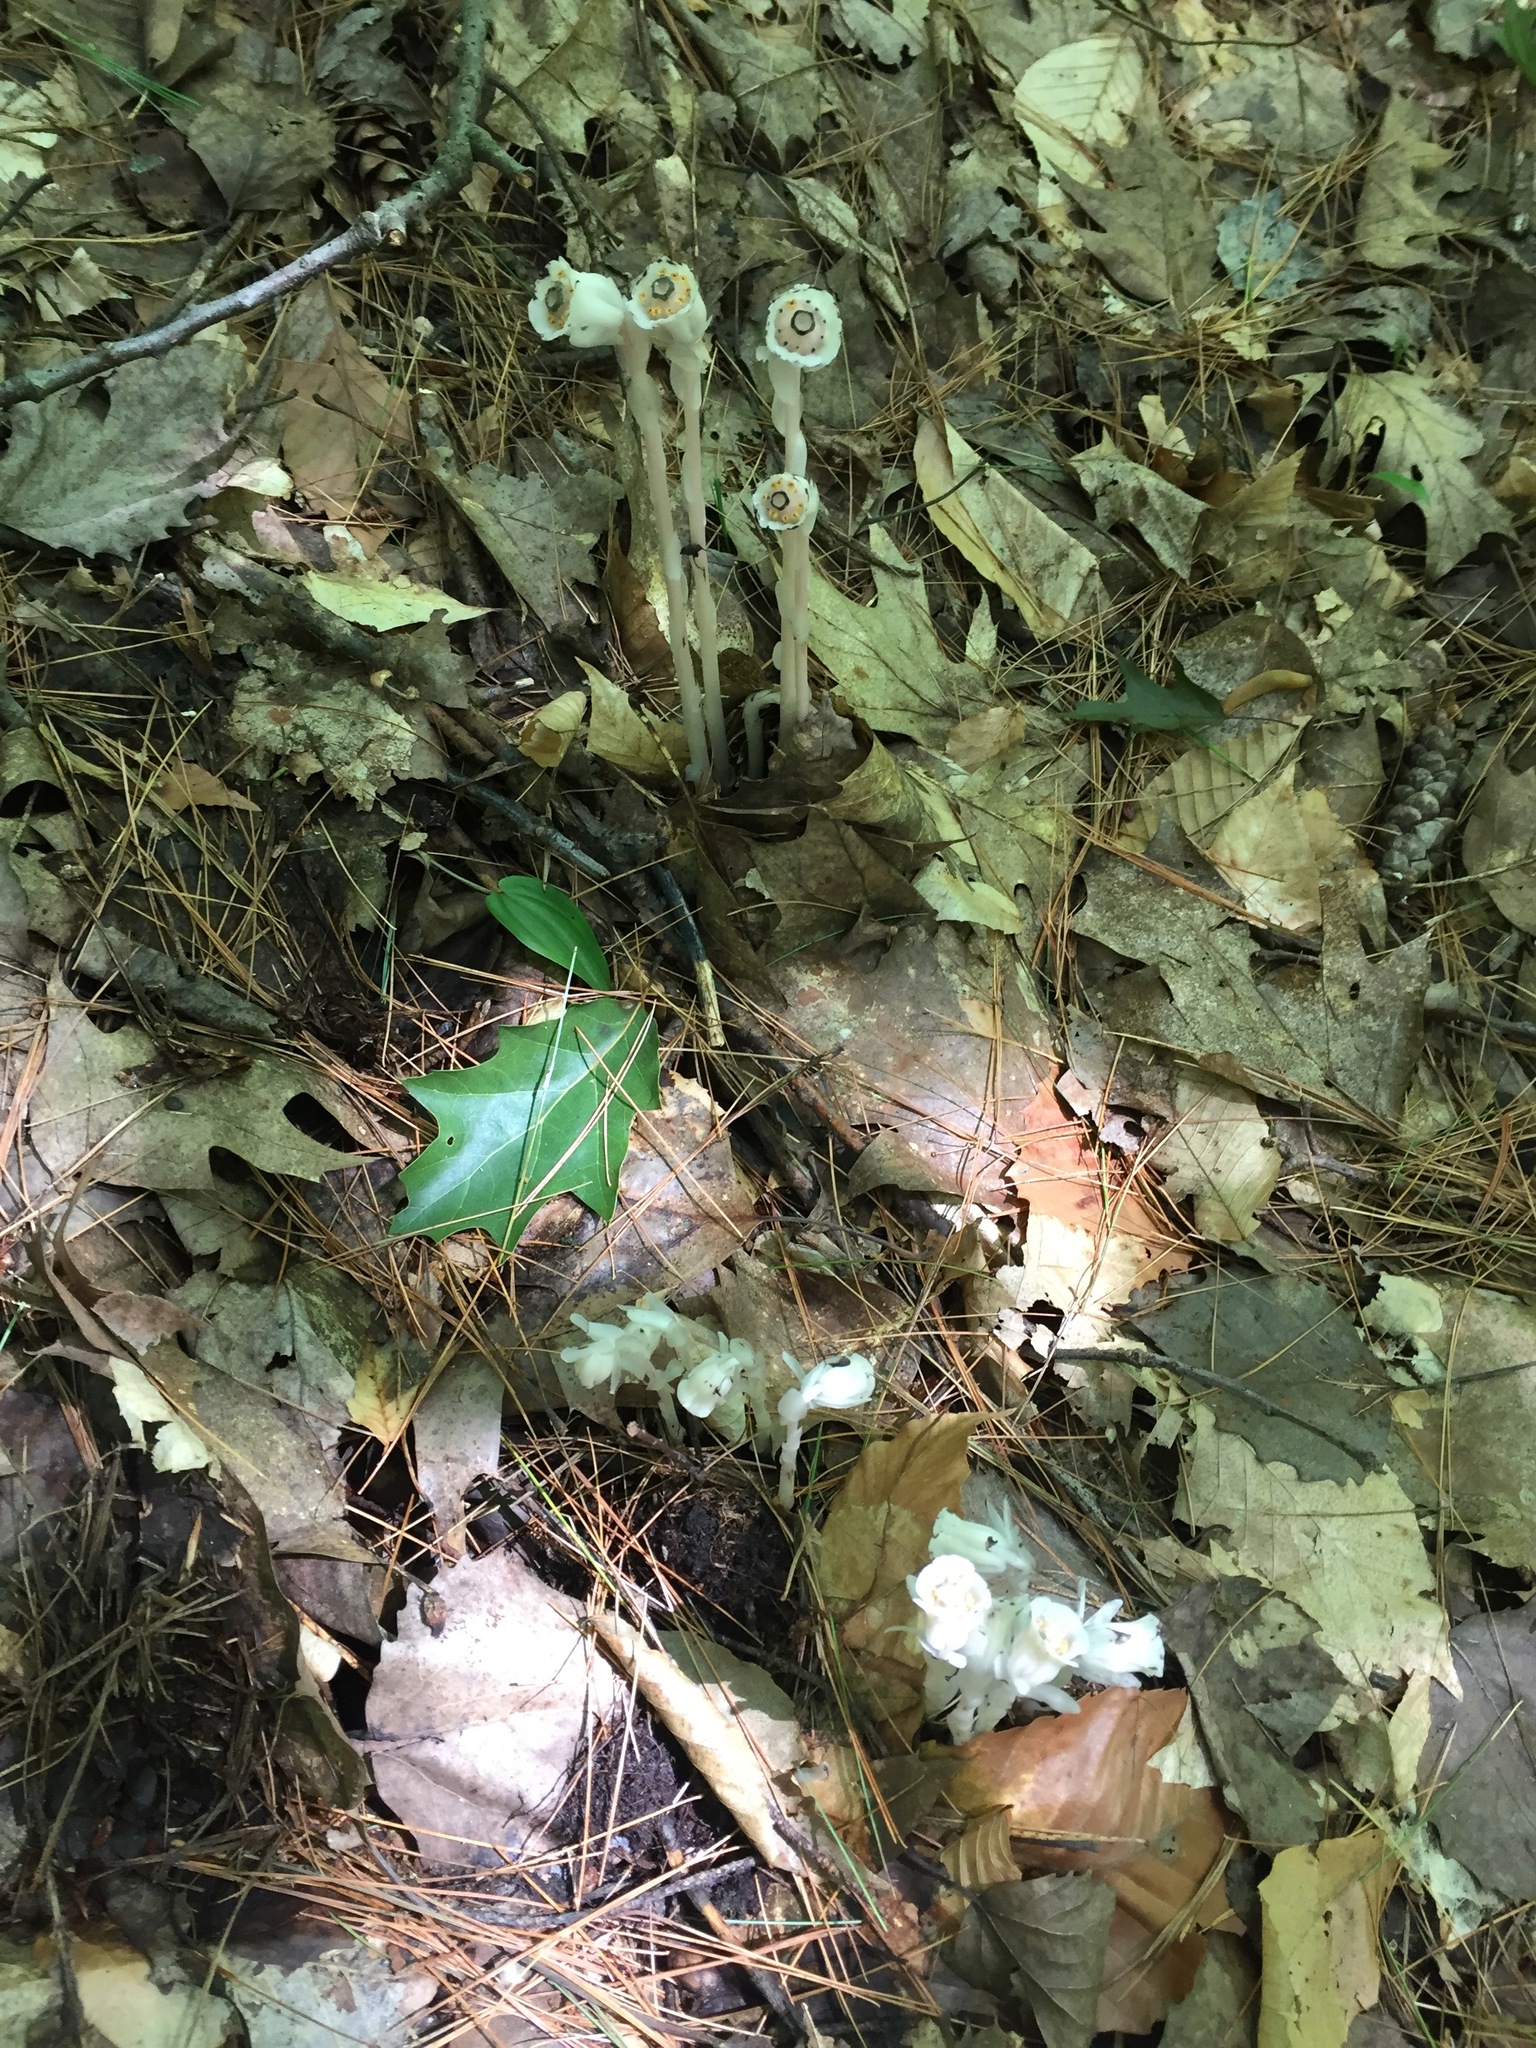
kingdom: Plantae
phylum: Tracheophyta
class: Magnoliopsida
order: Ericales
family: Ericaceae
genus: Monotropa
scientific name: Monotropa uniflora
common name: Convulsion root
